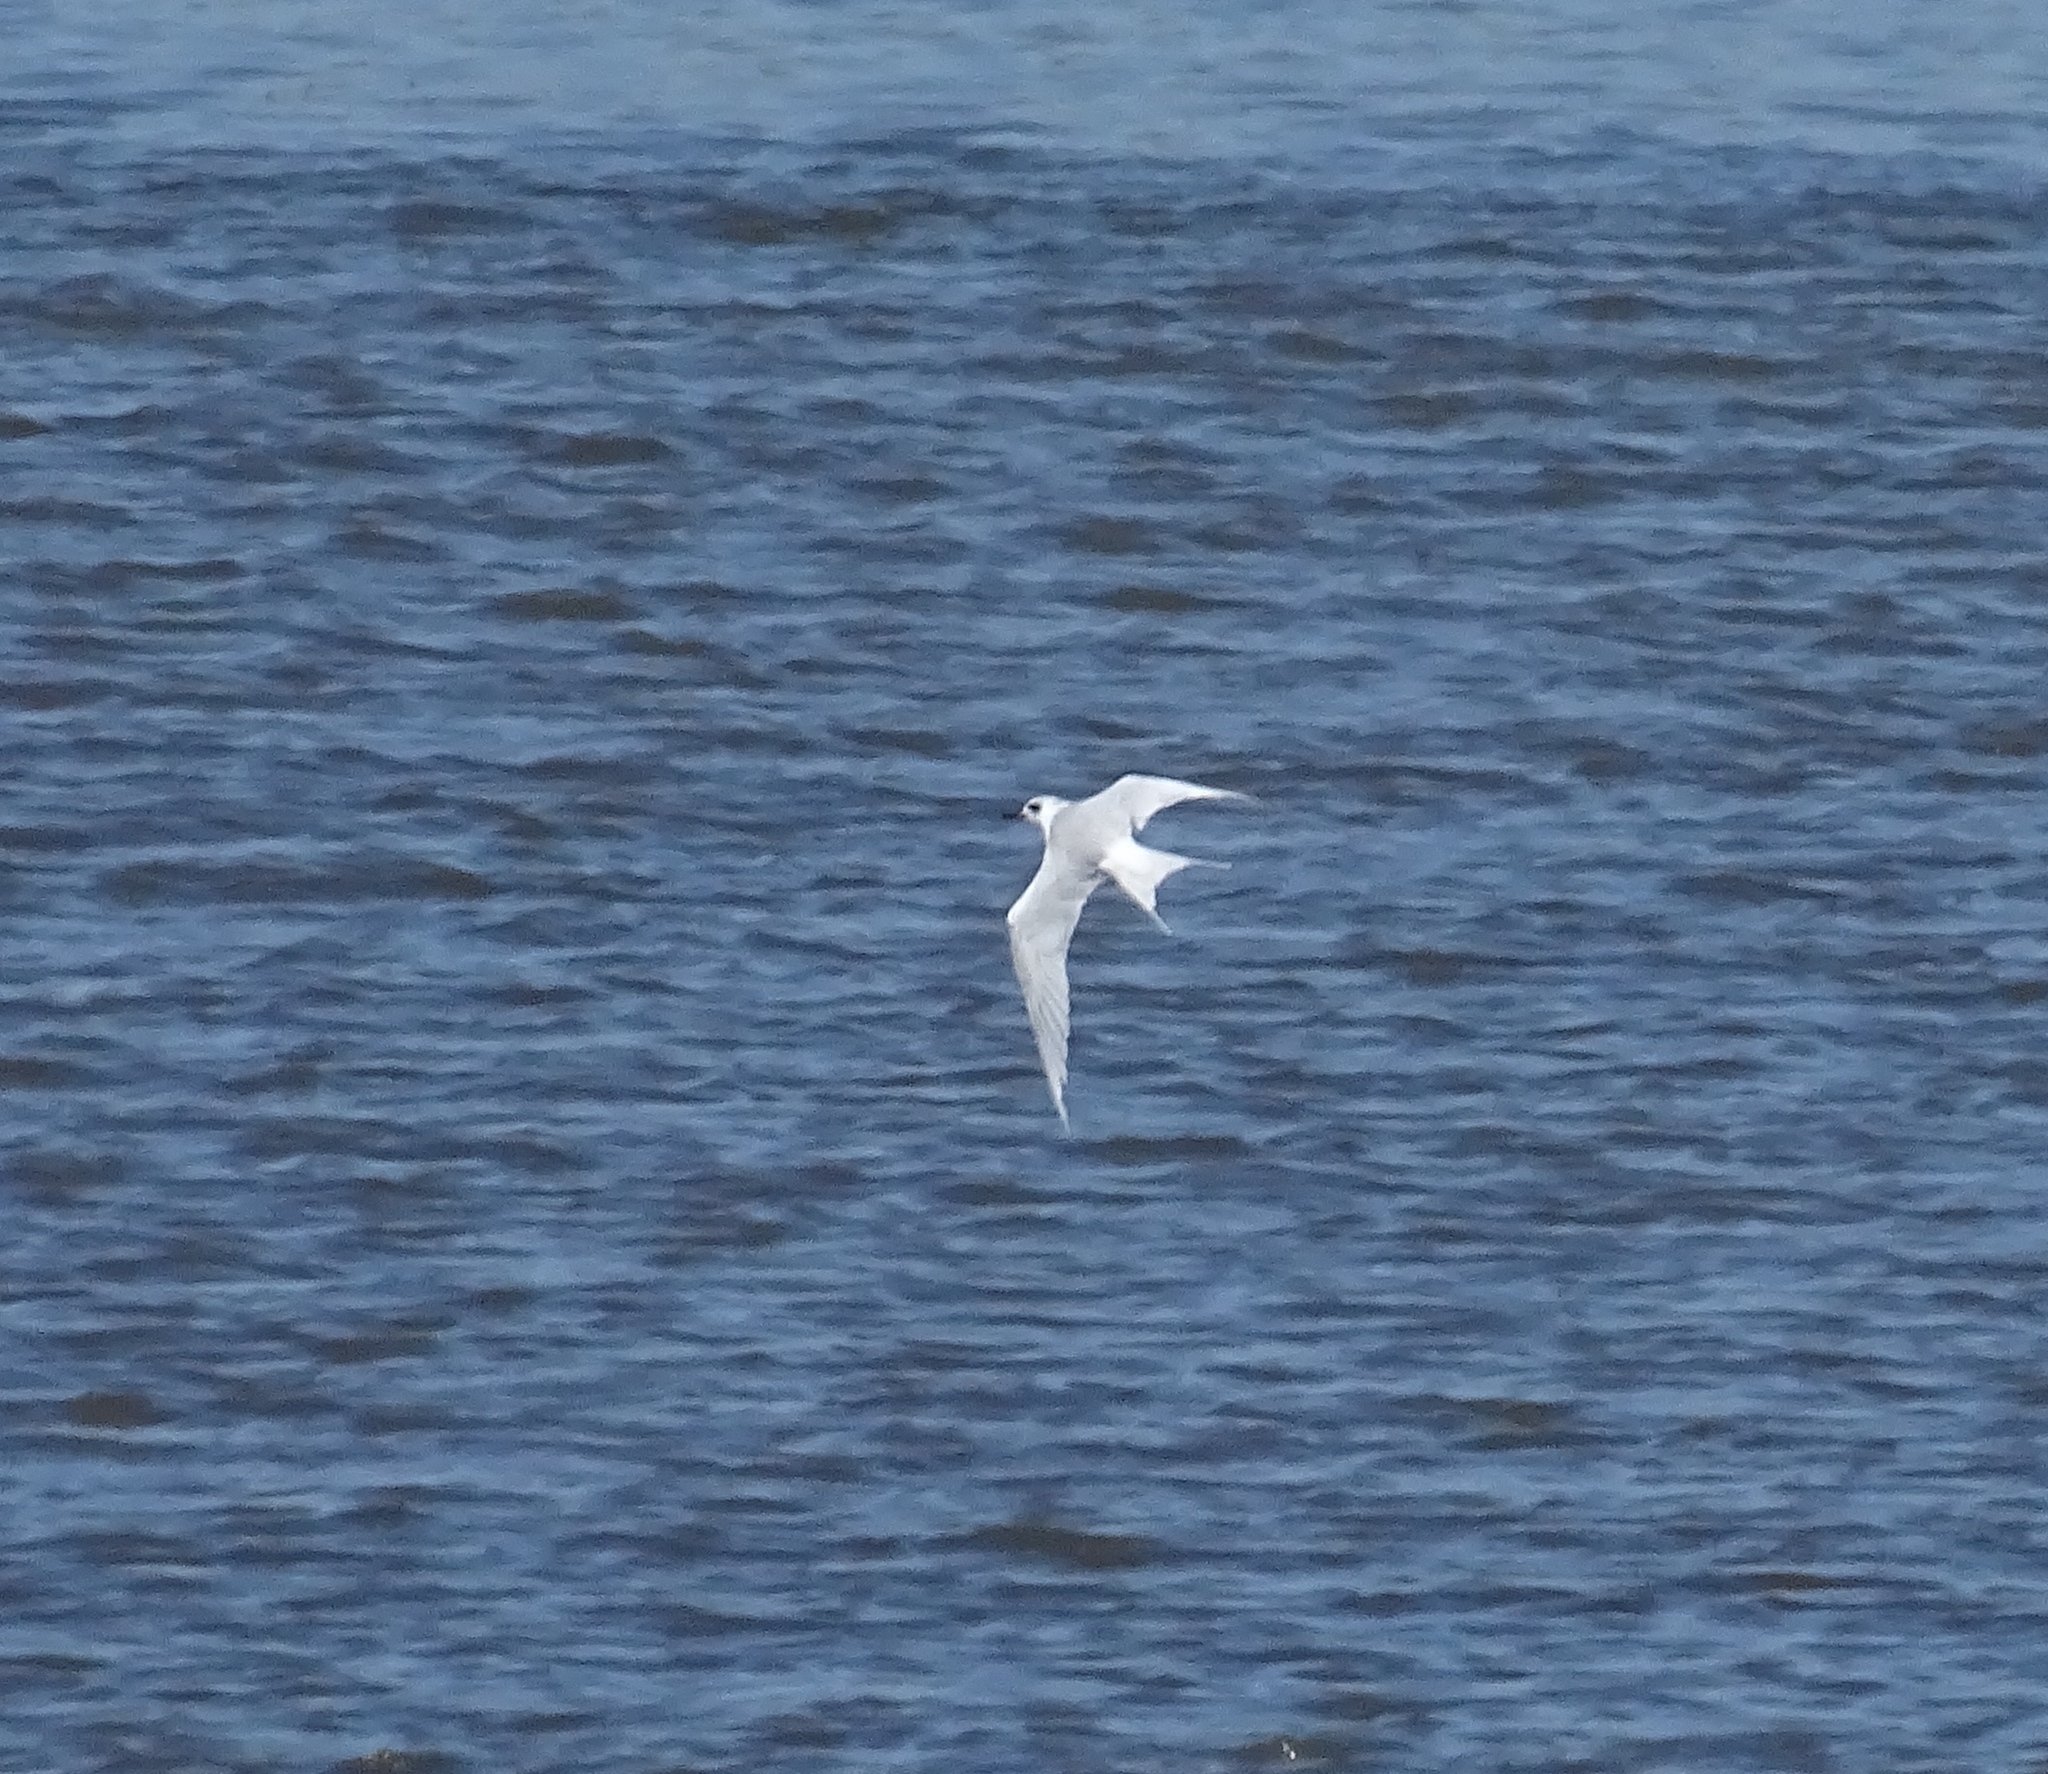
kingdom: Animalia
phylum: Chordata
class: Aves
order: Charadriiformes
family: Laridae
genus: Sterna
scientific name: Sterna forsteri
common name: Forster's tern
